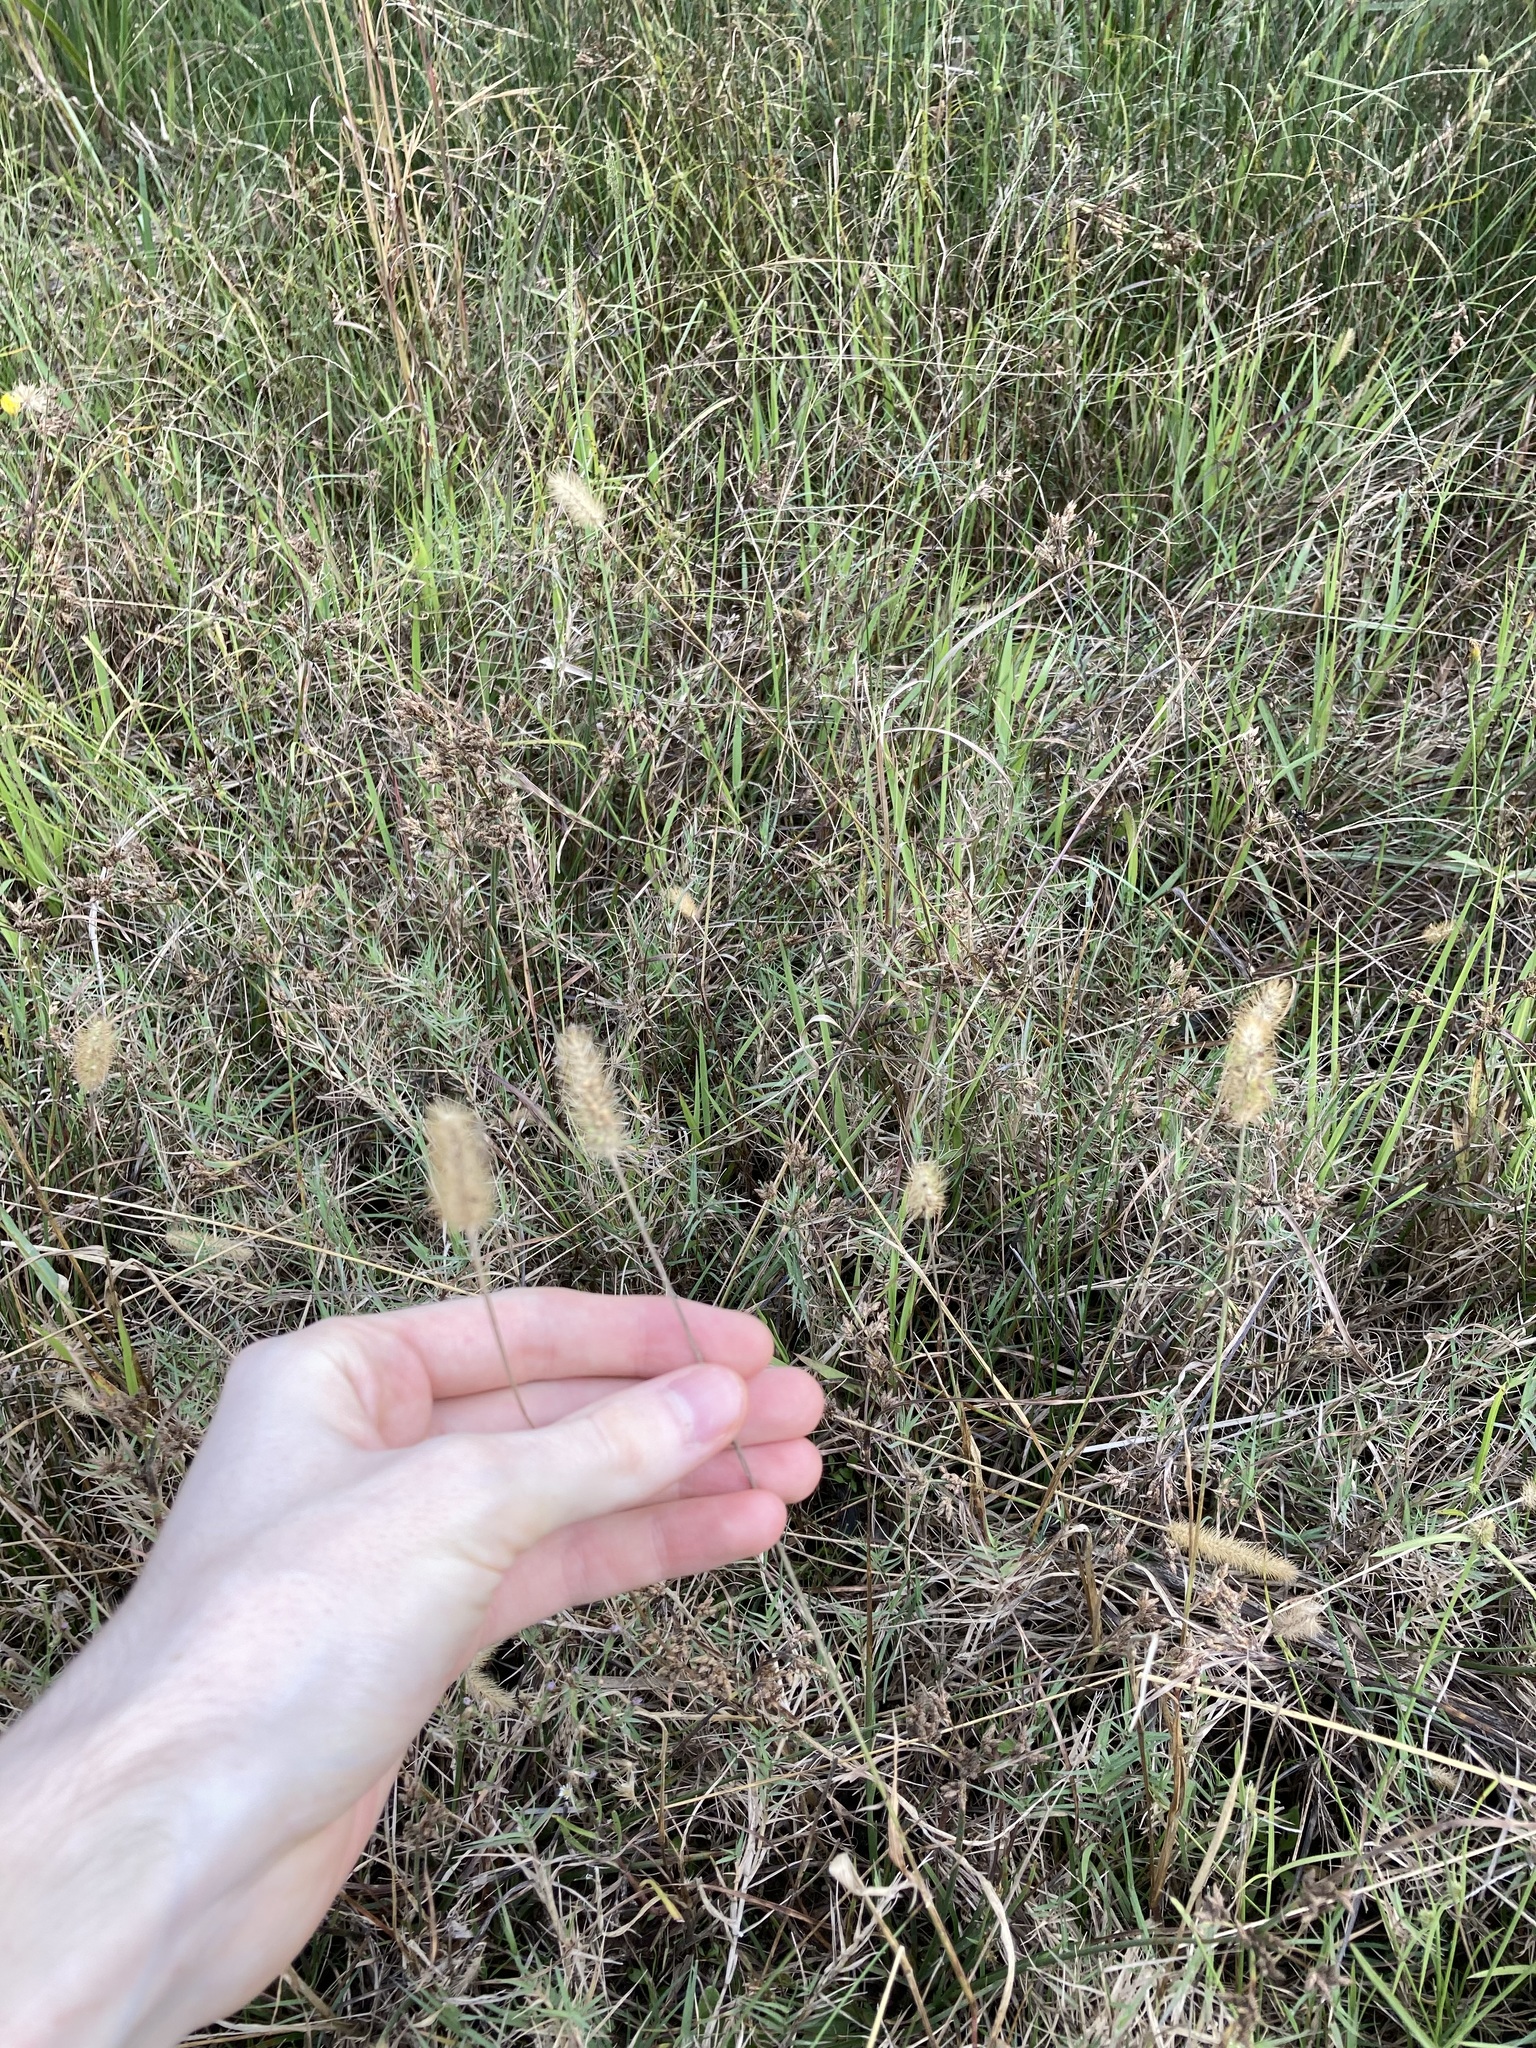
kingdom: Plantae
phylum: Tracheophyta
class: Liliopsida
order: Poales
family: Poaceae
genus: Setaria
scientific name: Setaria pumila
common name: Yellow bristle-grass
